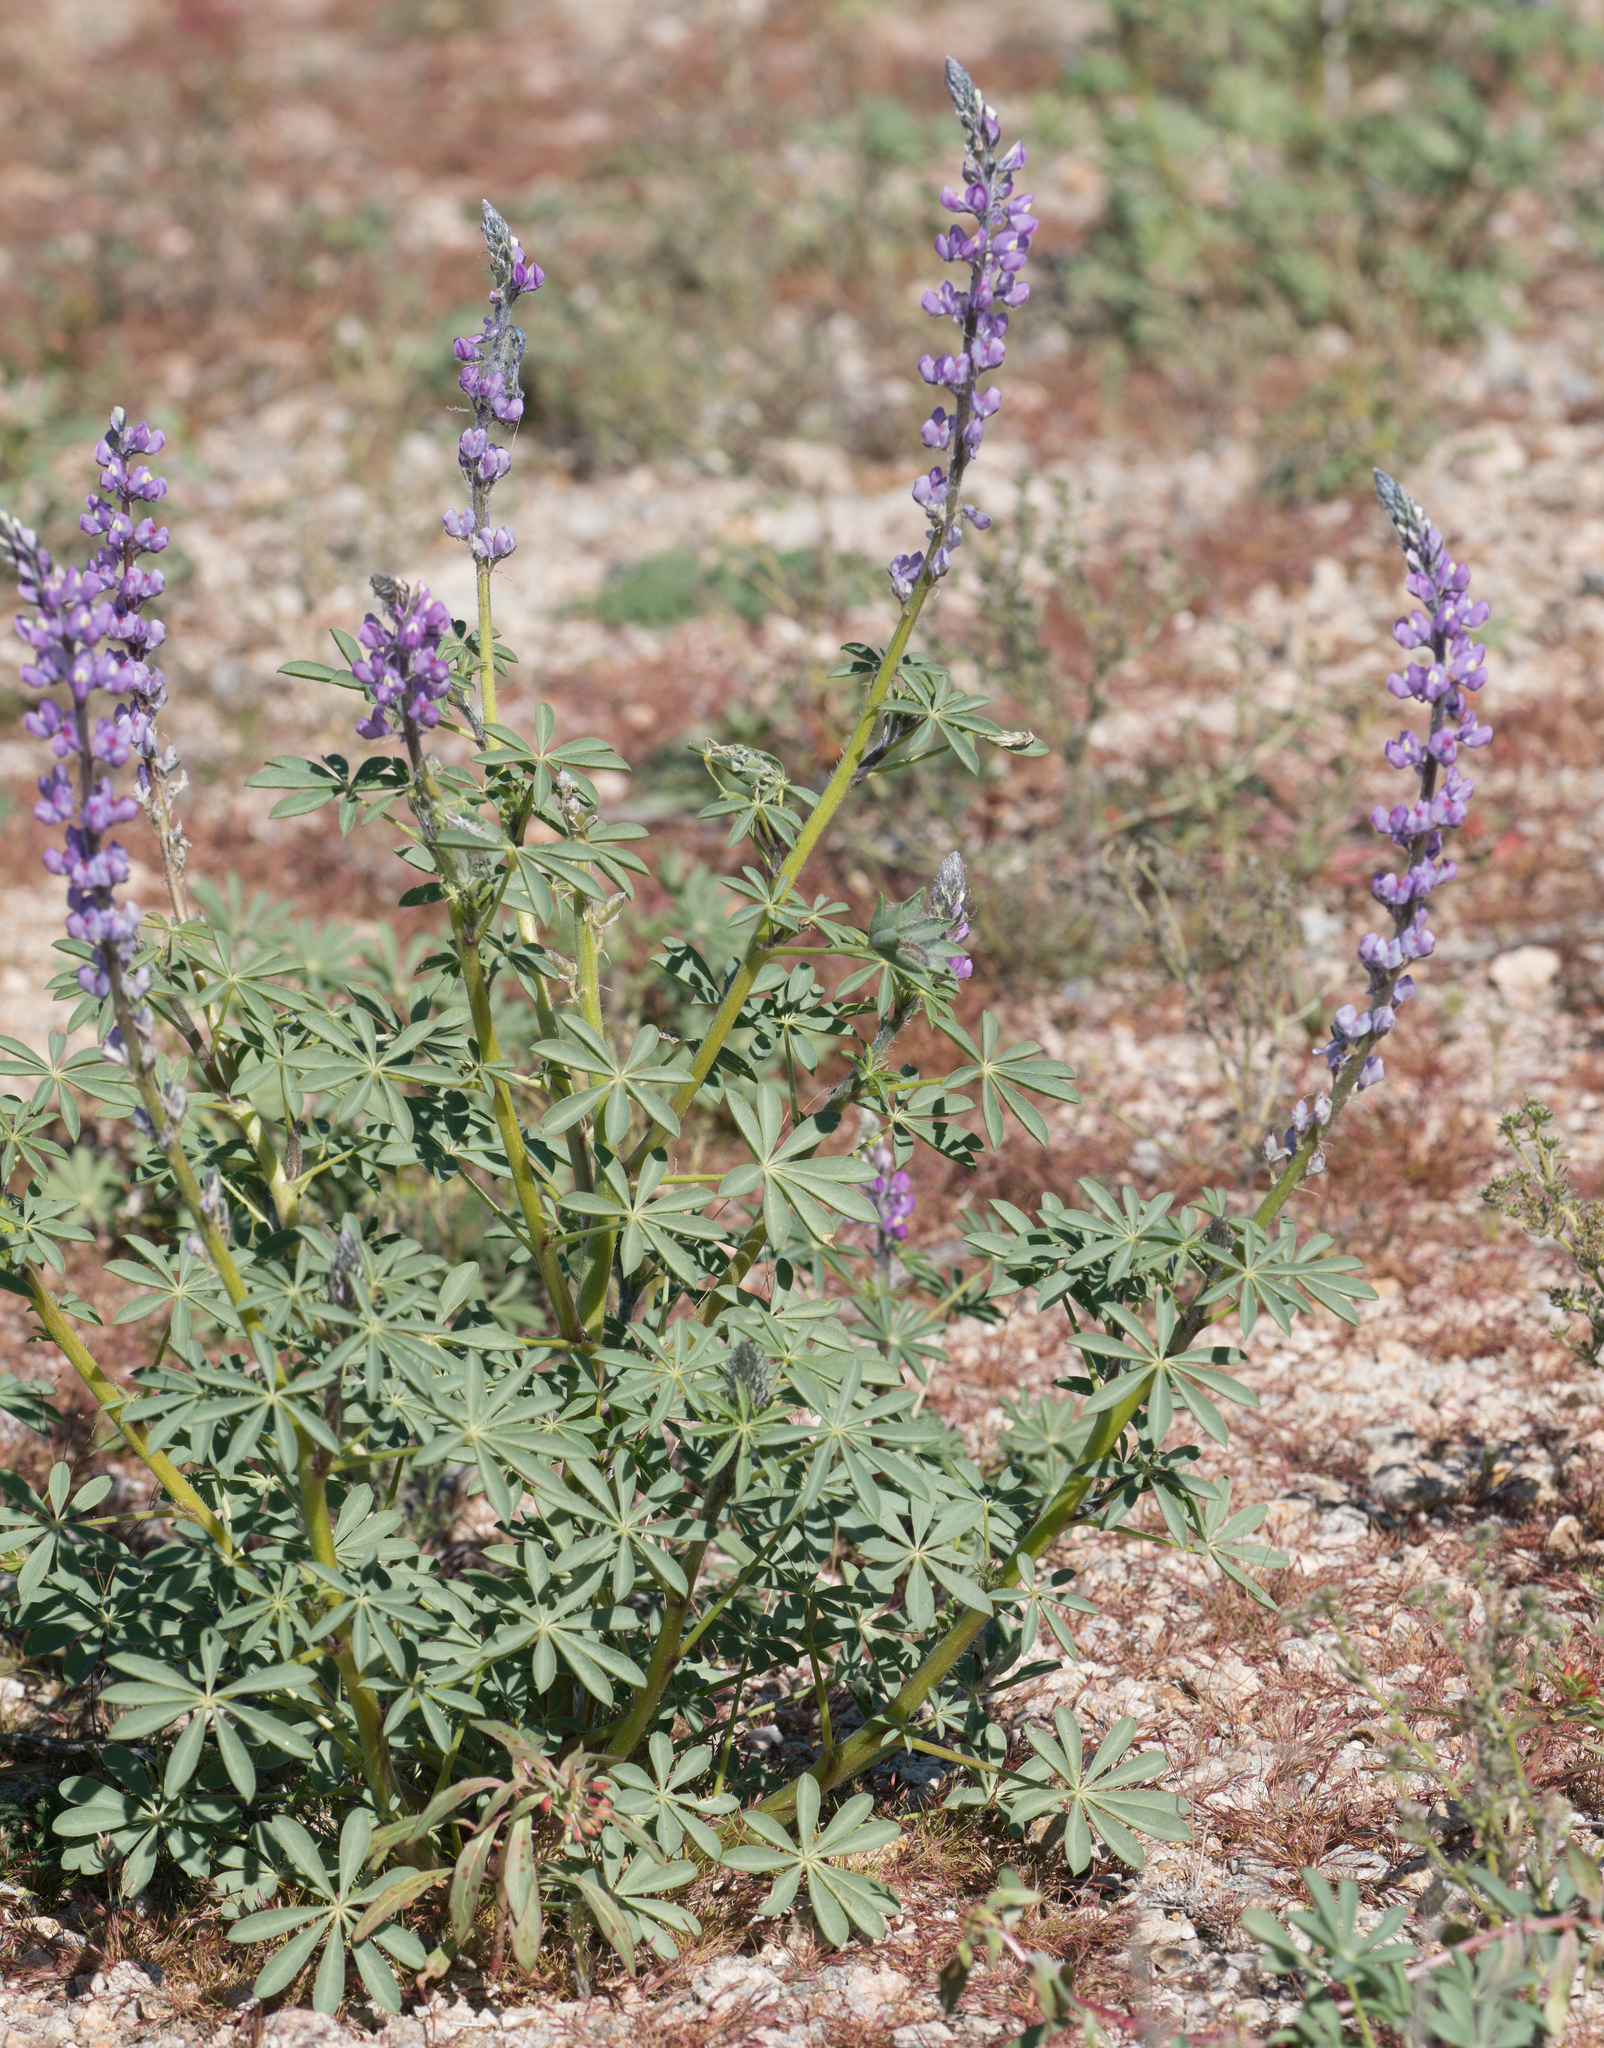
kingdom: Plantae
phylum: Tracheophyta
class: Magnoliopsida
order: Fabales
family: Fabaceae
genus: Lupinus
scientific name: Lupinus arizonicus
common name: Arizona lupine
